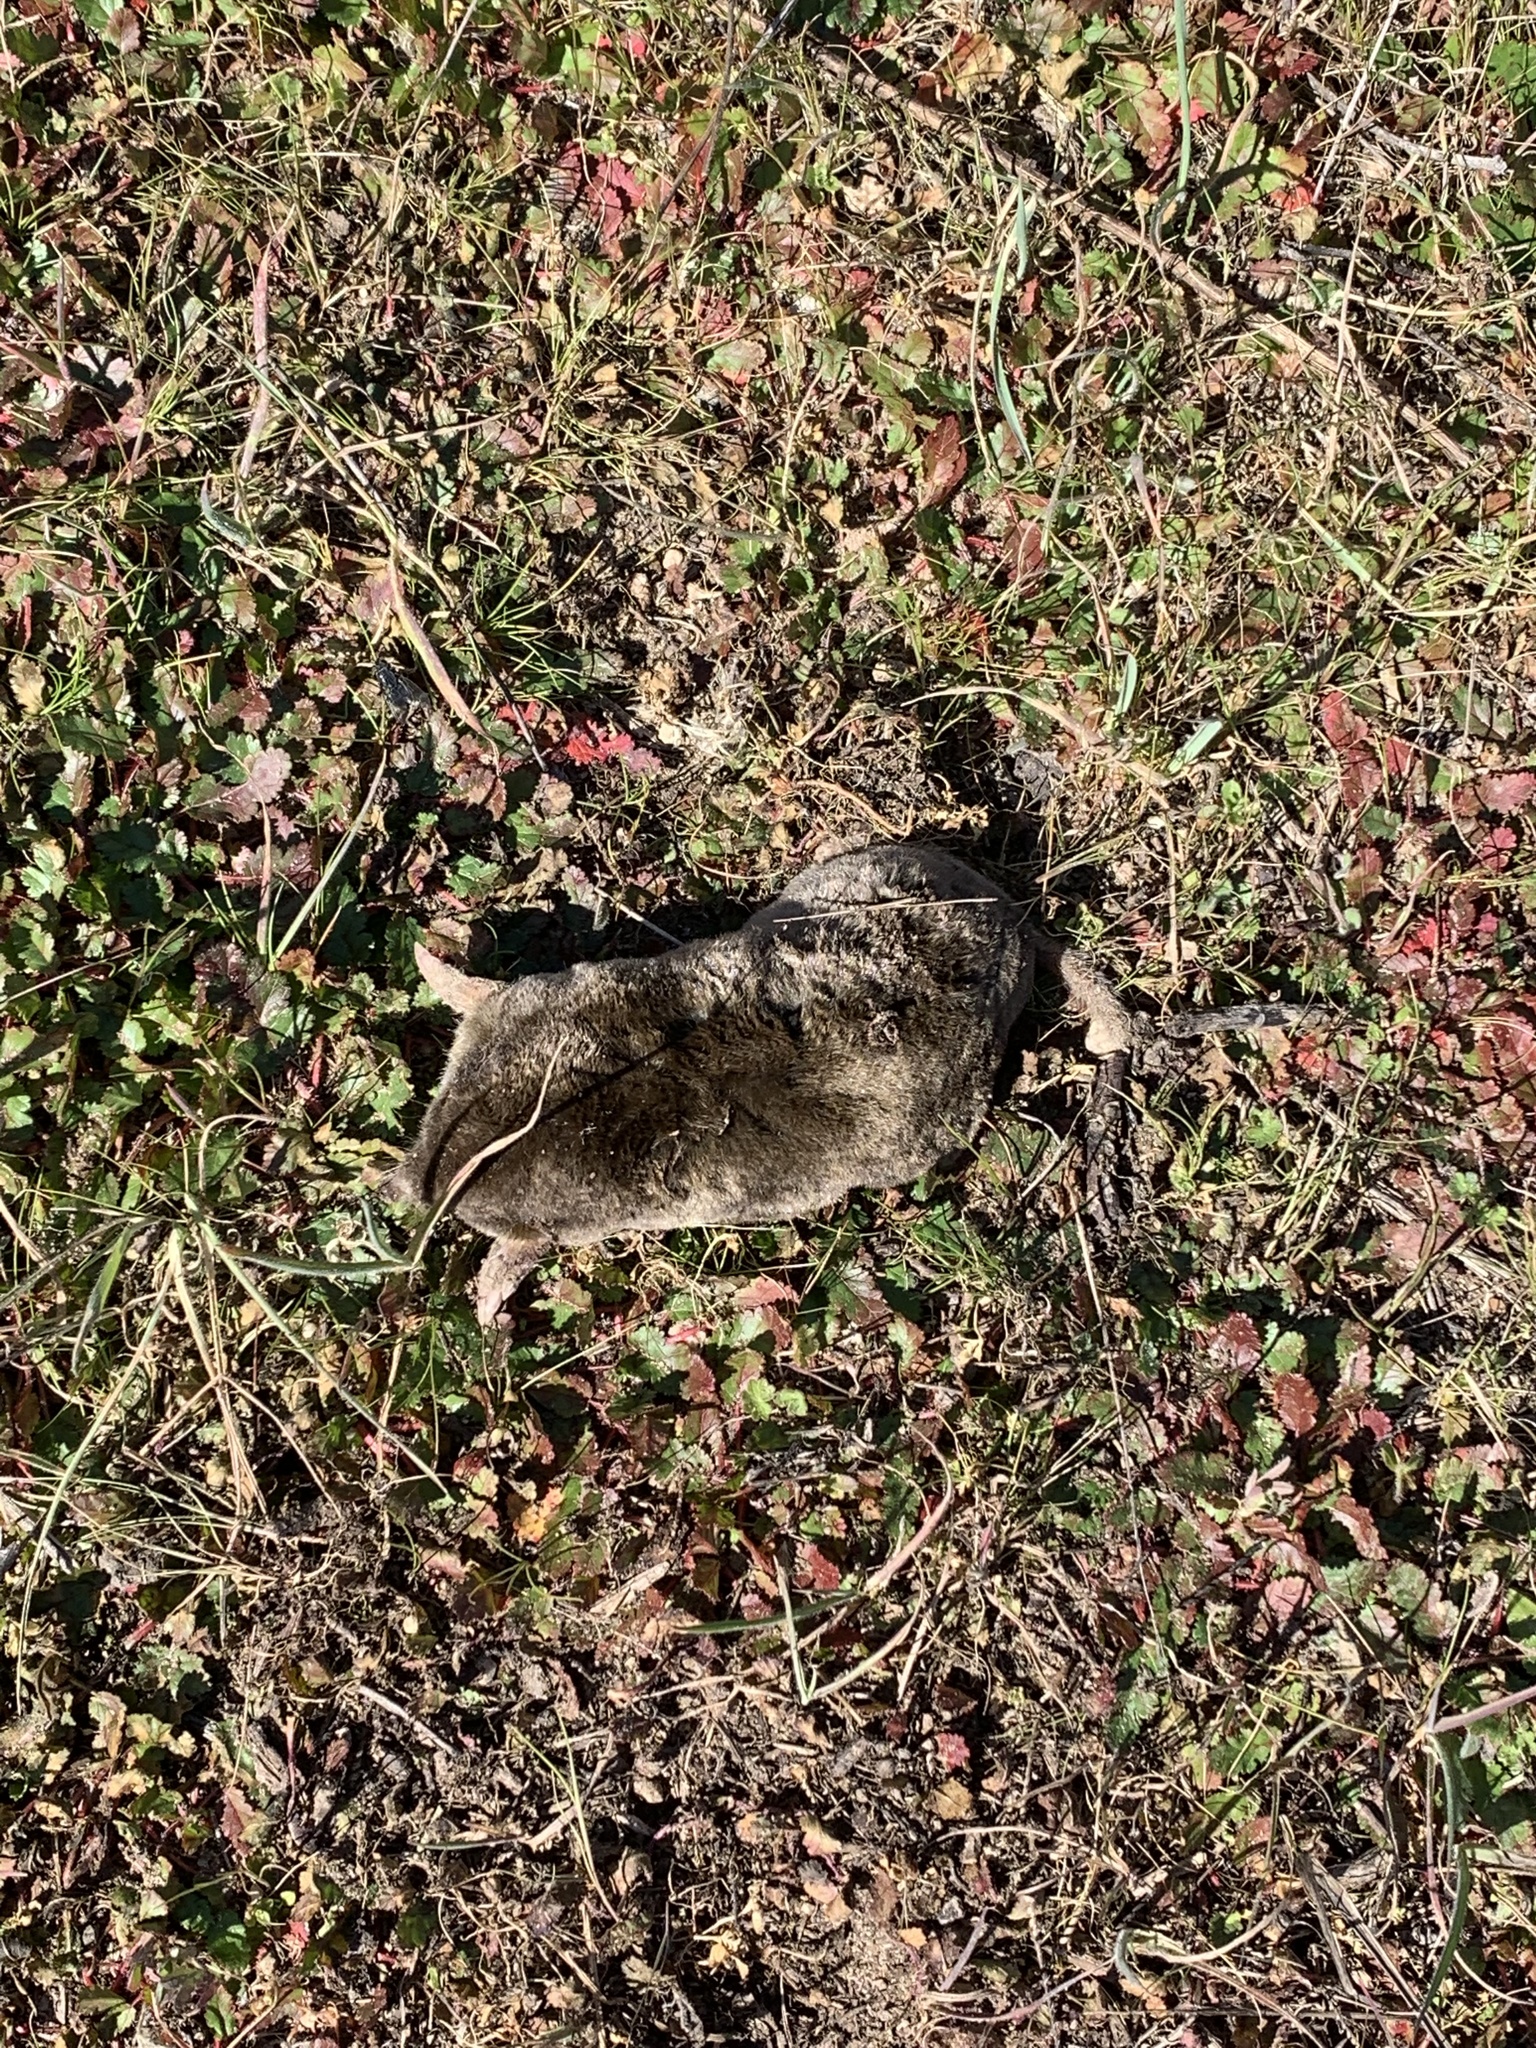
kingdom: Animalia
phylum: Chordata
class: Mammalia
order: Soricomorpha
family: Talpidae
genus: Scapanus
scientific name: Scapanus latimanus
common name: Broad-footed mole
